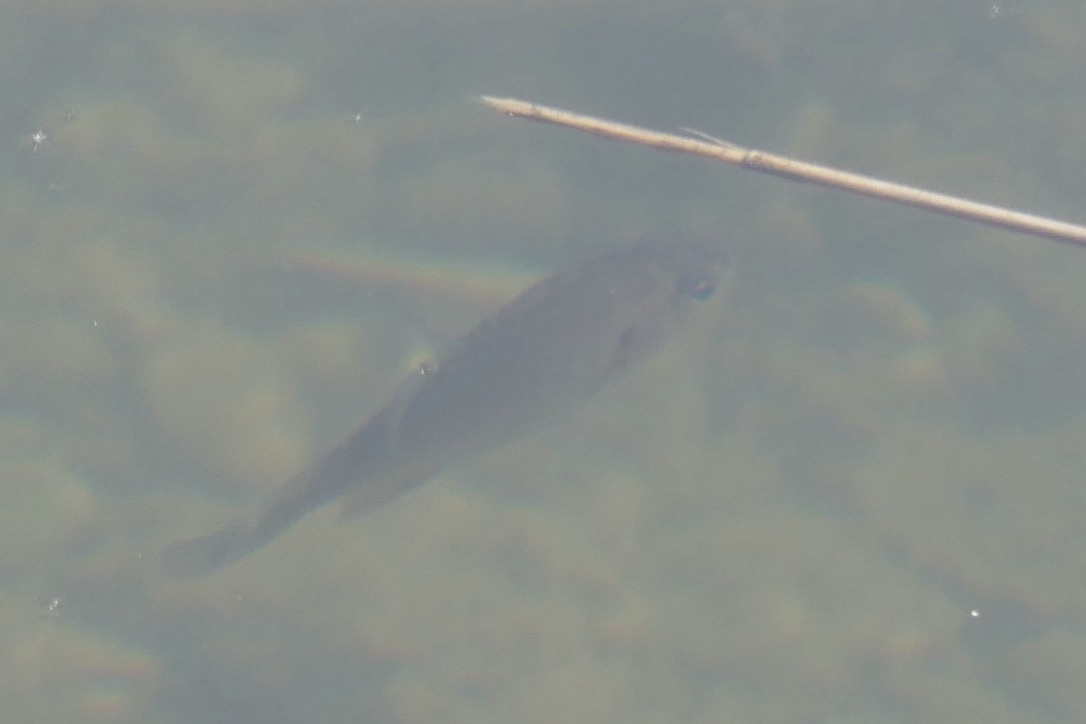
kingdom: Animalia
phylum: Chordata
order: Perciformes
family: Centrarchidae
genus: Lepomis
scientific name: Lepomis gibbosus
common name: Pumpkinseed
